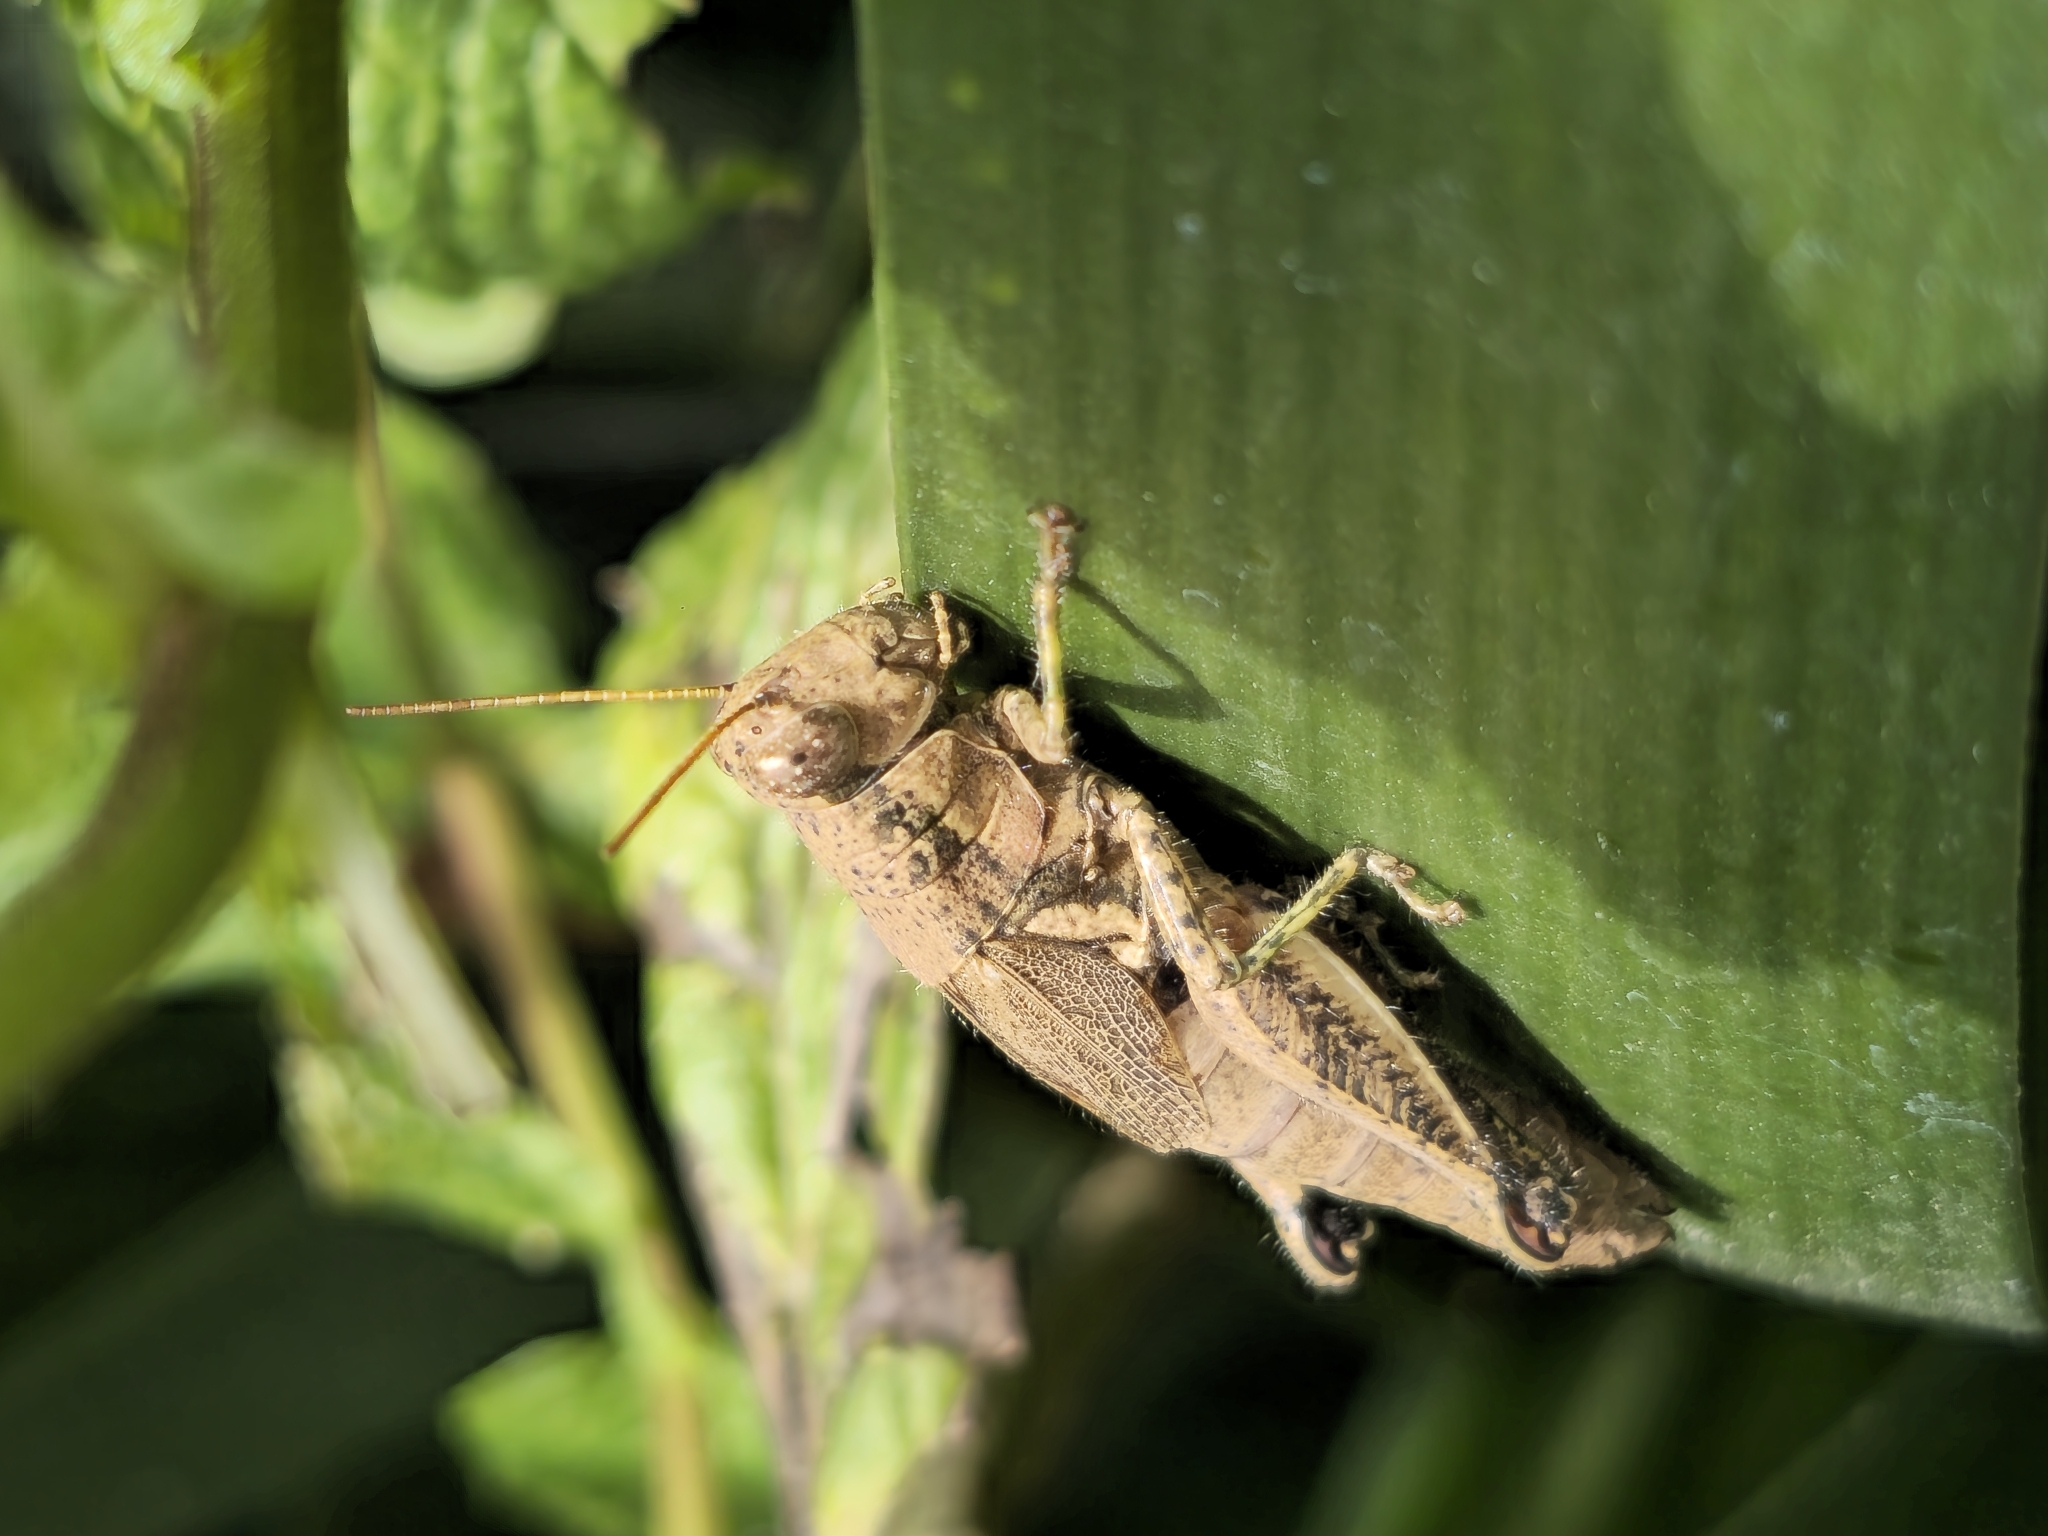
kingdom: Animalia
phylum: Arthropoda
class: Insecta
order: Orthoptera
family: Acrididae
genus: Dichroplus
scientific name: Dichroplus schulzi
